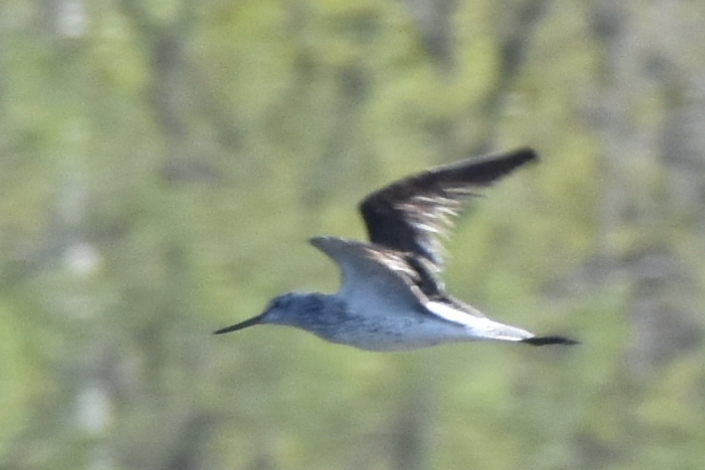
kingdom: Animalia
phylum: Chordata
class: Aves
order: Charadriiformes
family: Scolopacidae
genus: Tringa
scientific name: Tringa nebularia
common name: Common greenshank
